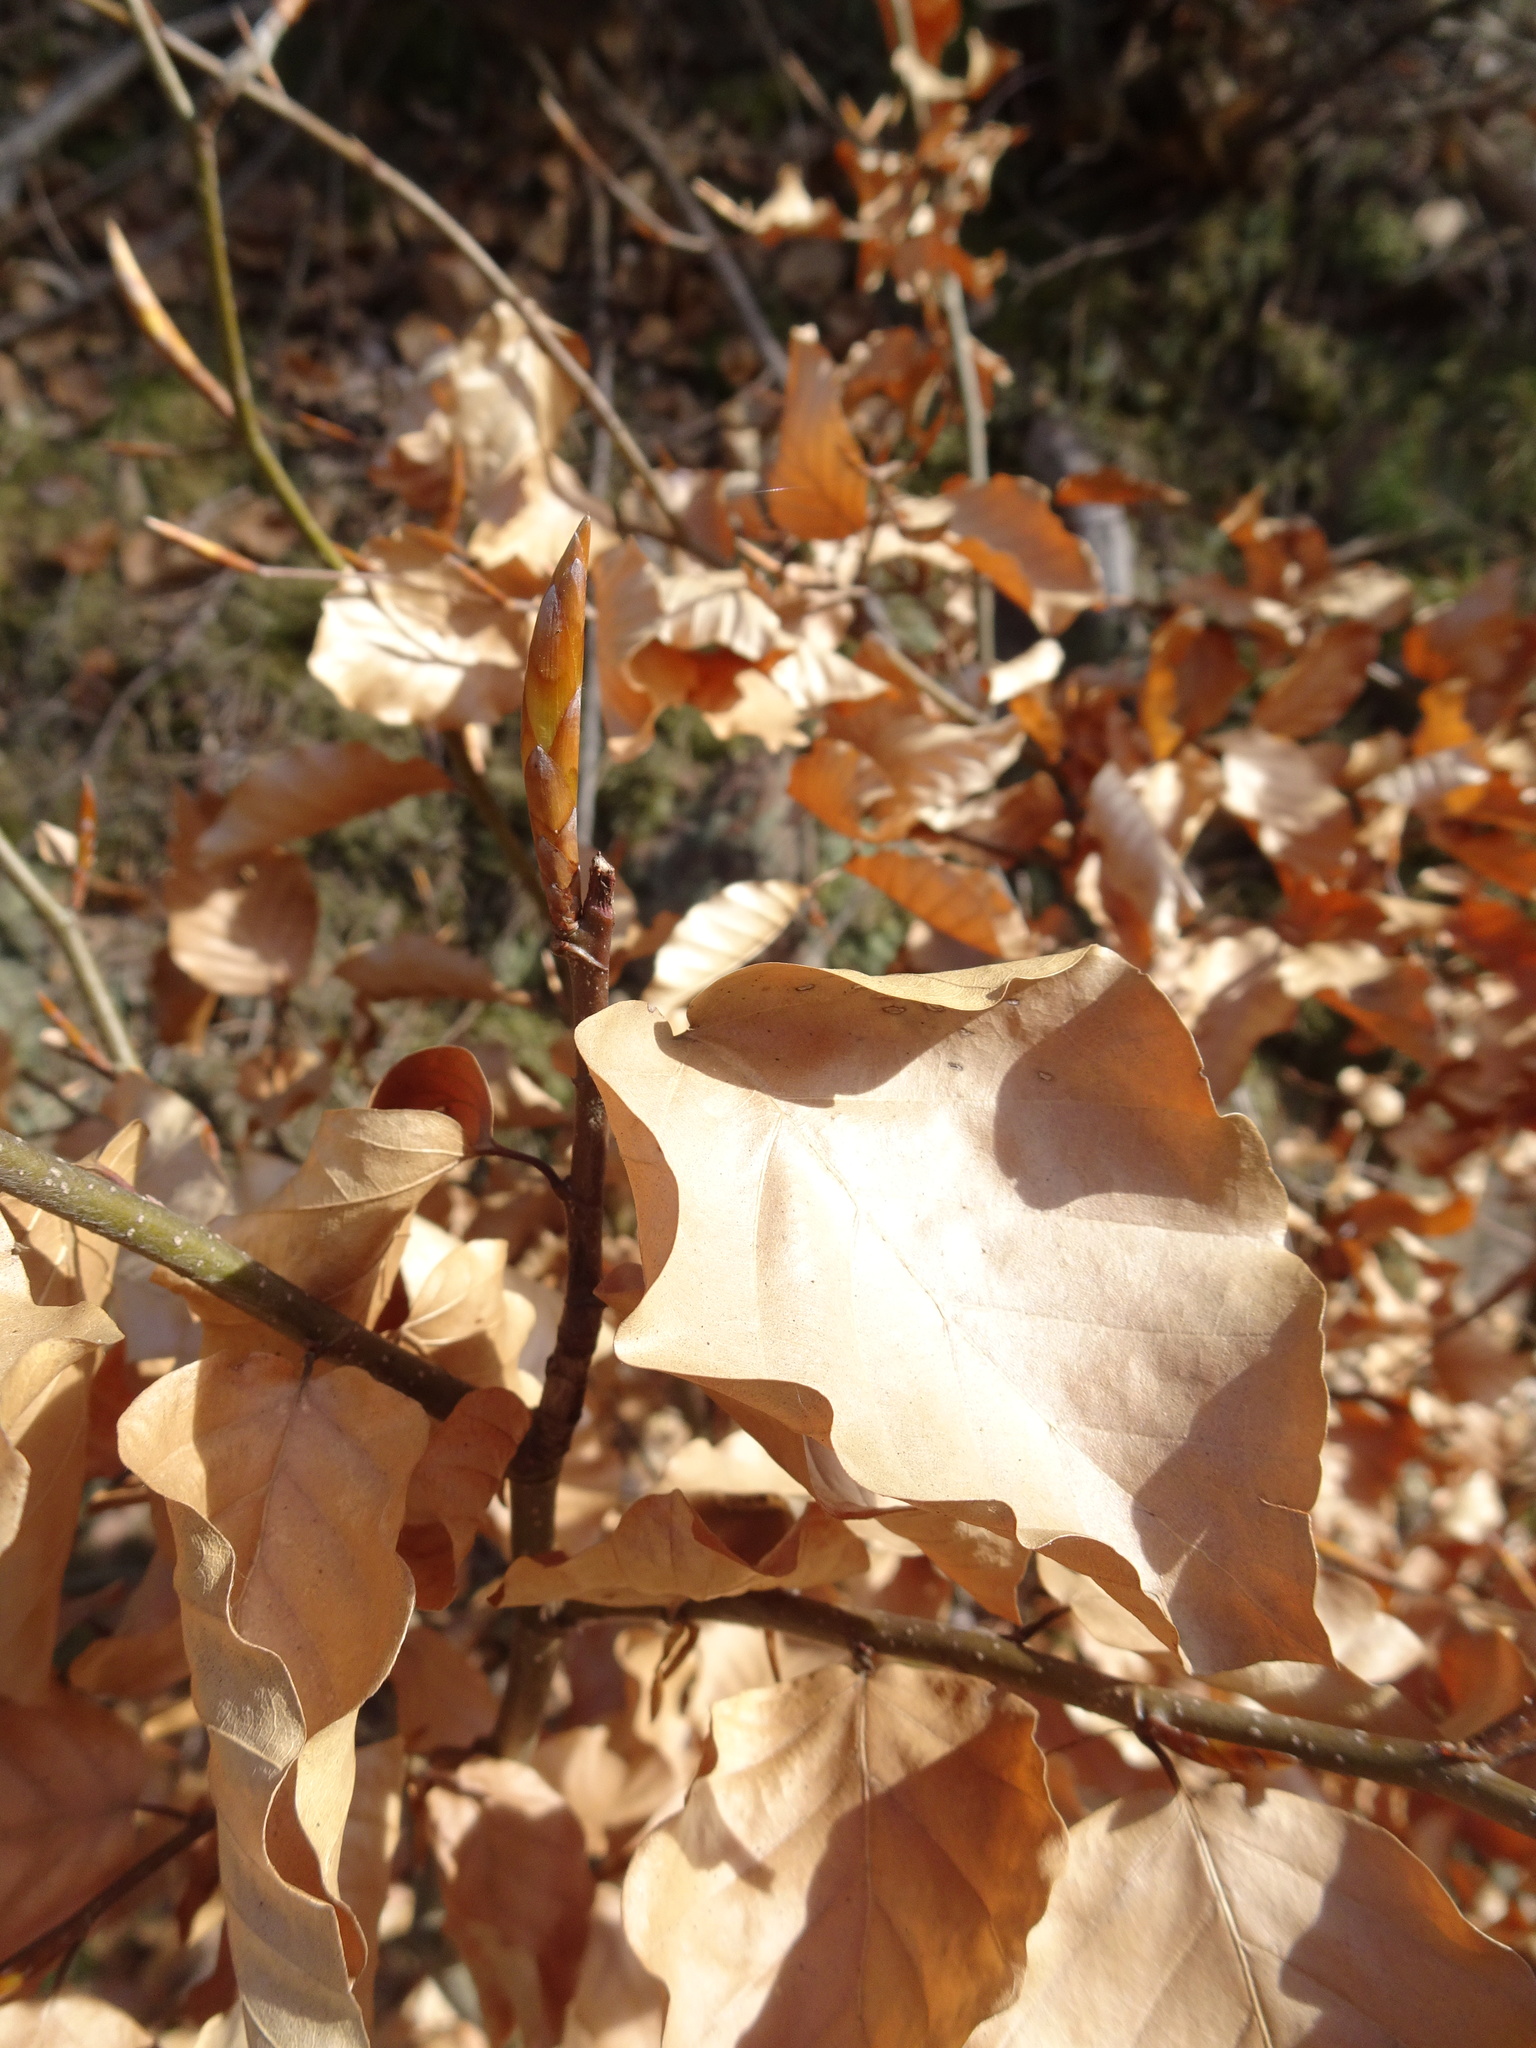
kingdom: Plantae
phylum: Tracheophyta
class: Magnoliopsida
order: Fagales
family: Fagaceae
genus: Fagus
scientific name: Fagus sylvatica
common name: Beech
